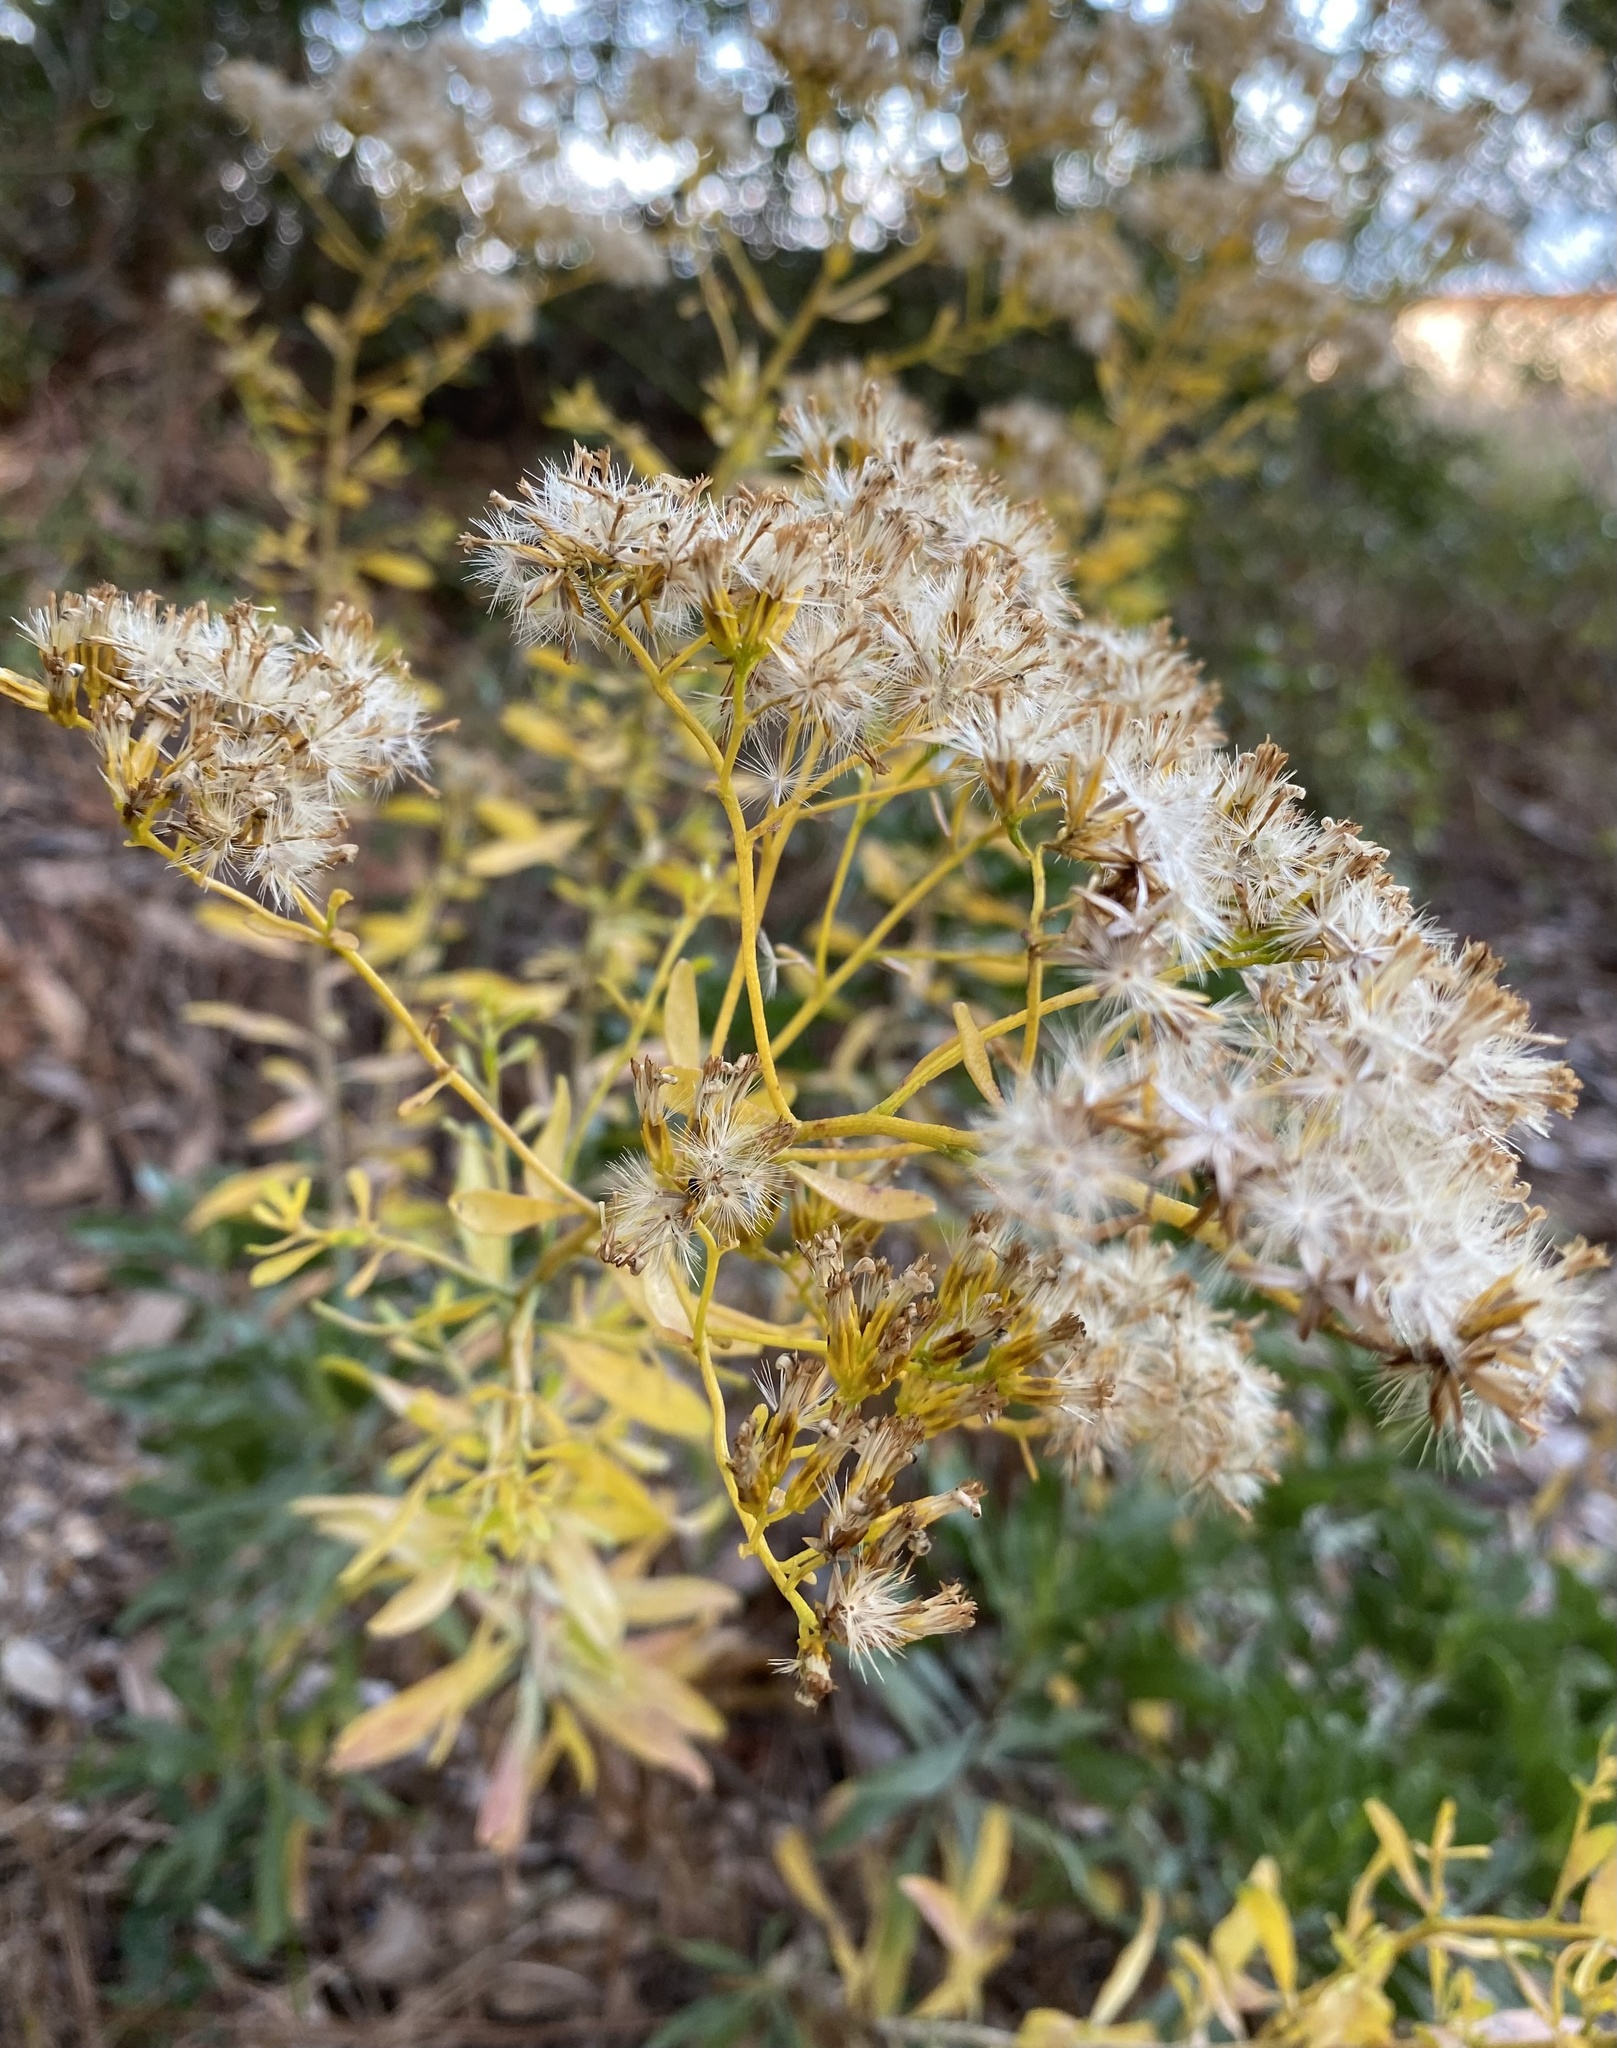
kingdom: Plantae
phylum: Tracheophyta
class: Magnoliopsida
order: Asterales
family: Asteraceae
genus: Chrysoma
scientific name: Chrysoma pauciflosculosa
